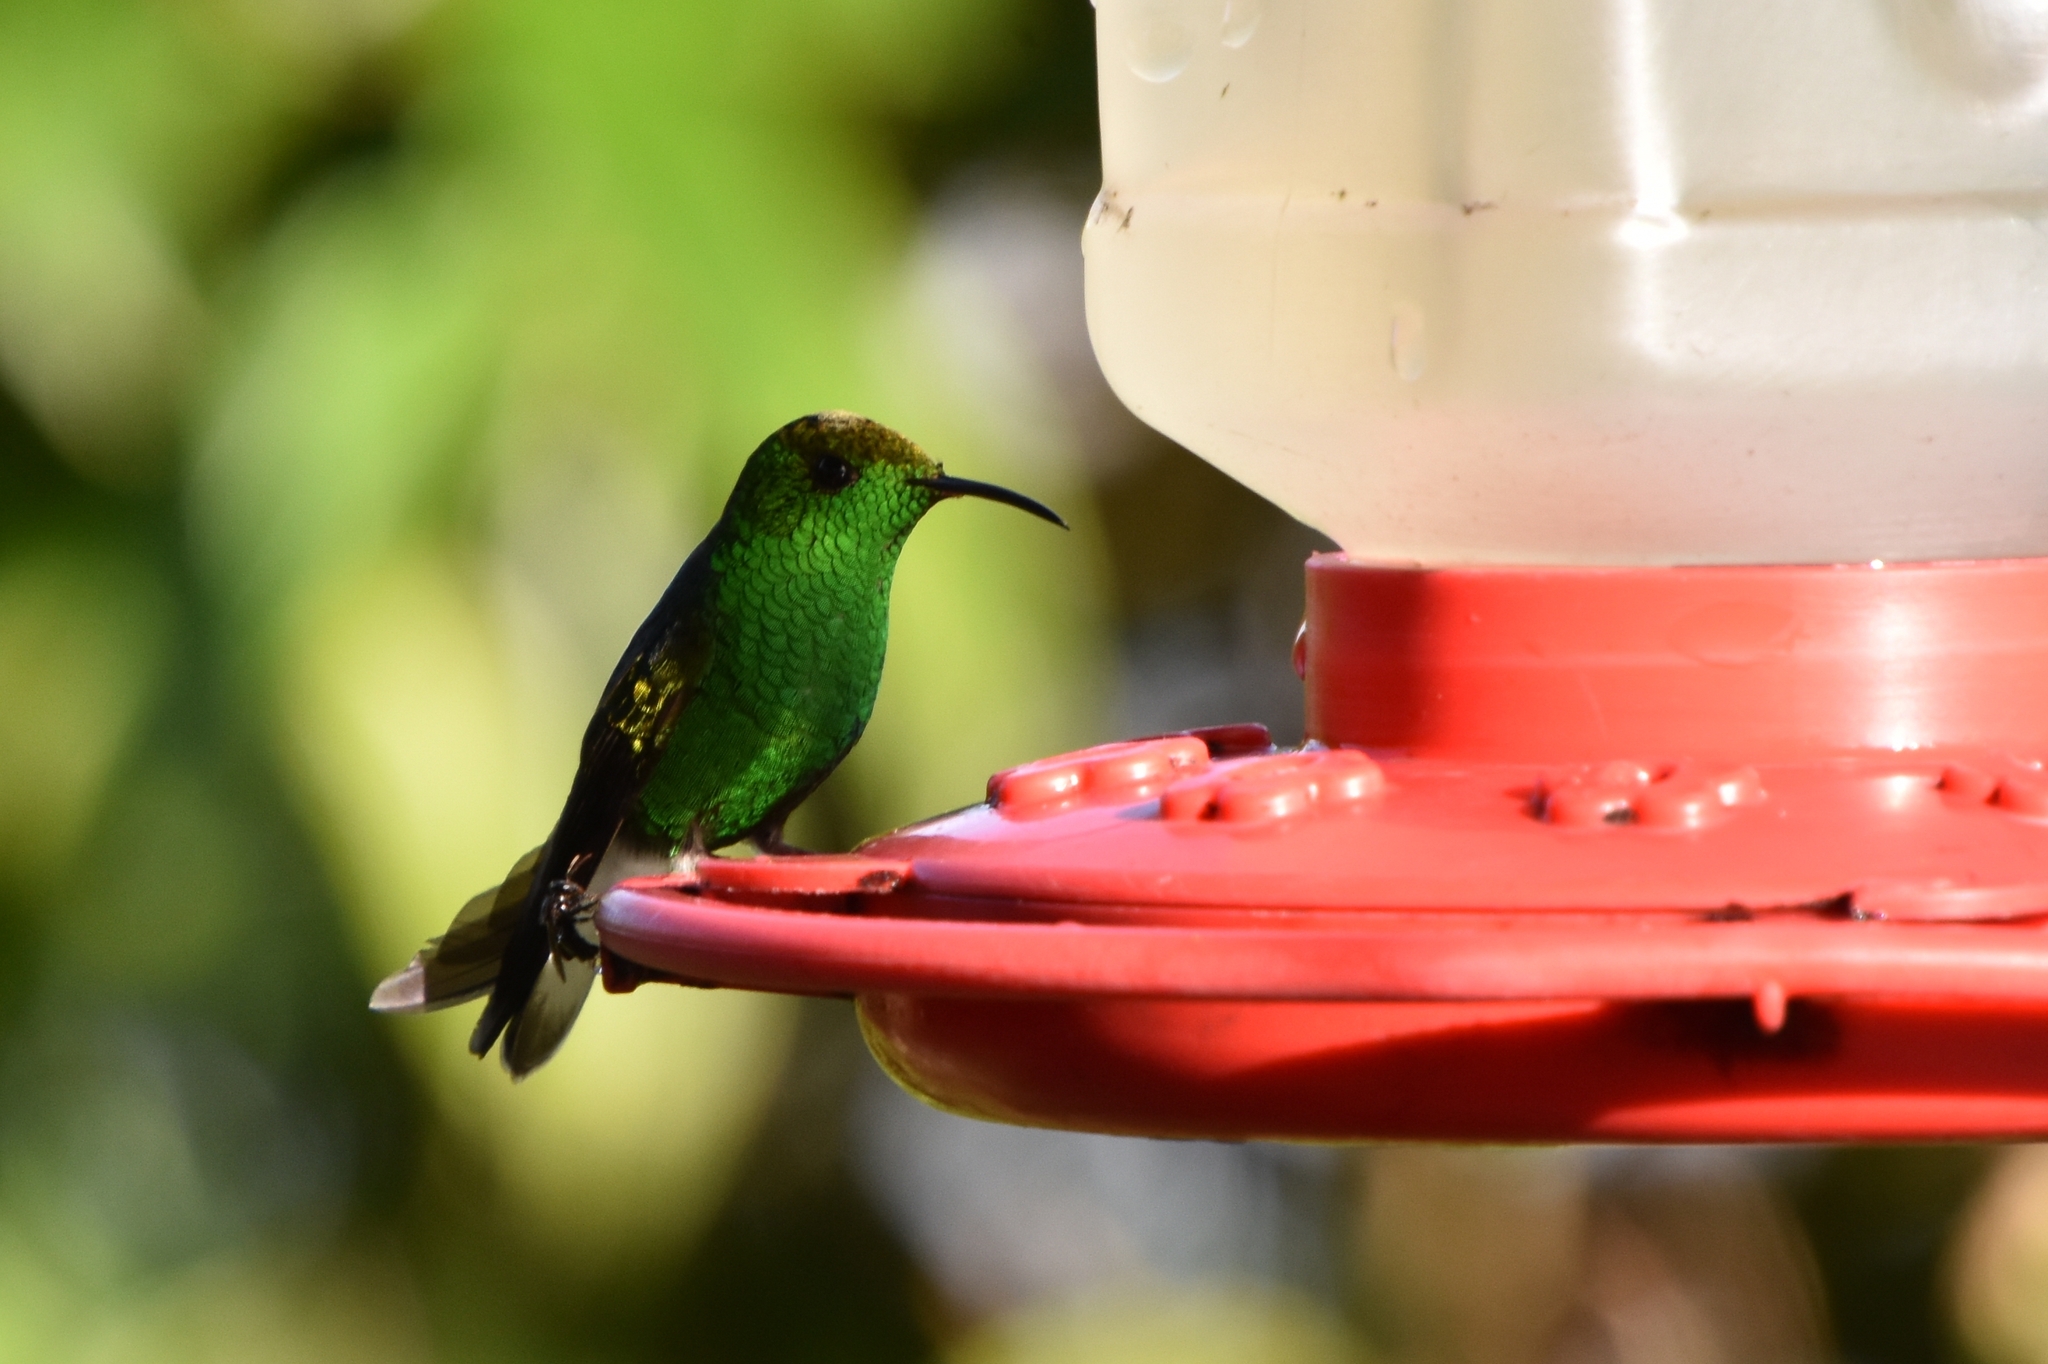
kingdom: Animalia
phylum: Chordata
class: Aves
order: Apodiformes
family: Trochilidae
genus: Microchera
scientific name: Microchera cupreiceps
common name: Coppery-headed emerald
